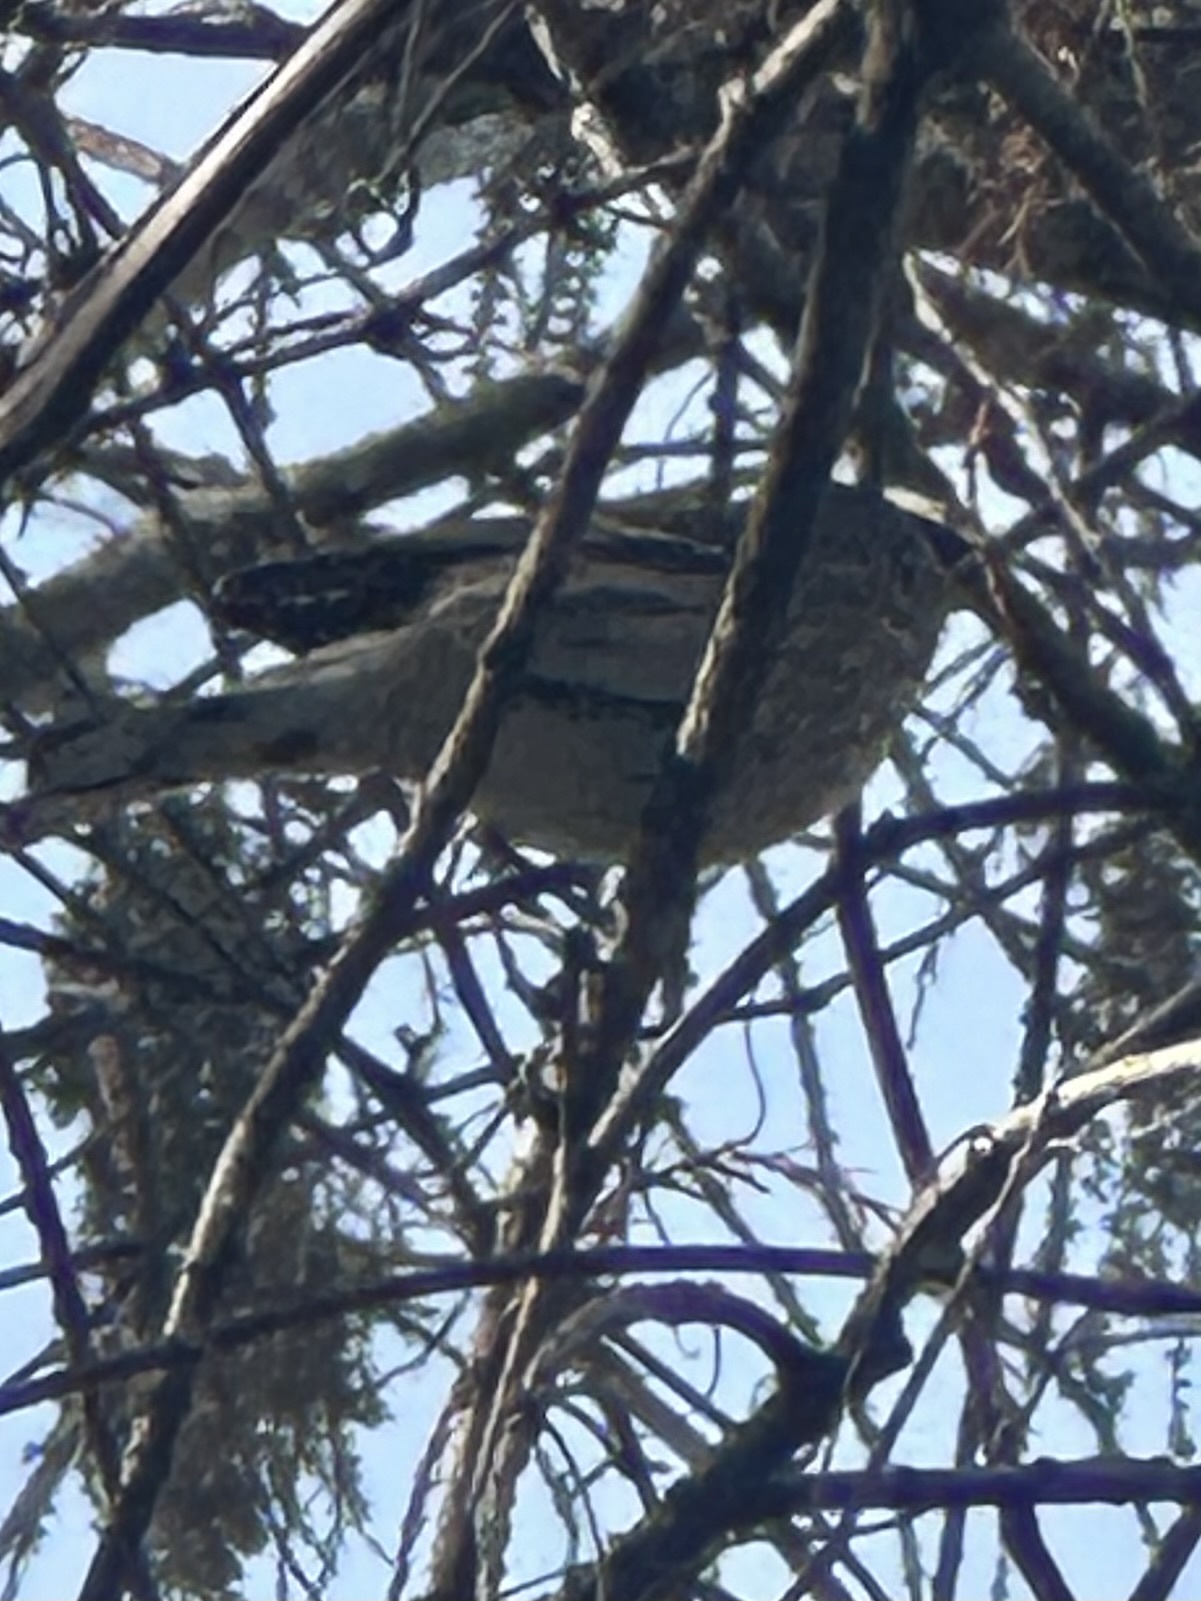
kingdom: Animalia
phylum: Chordata
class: Aves
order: Passeriformes
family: Parulidae
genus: Setophaga
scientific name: Setophaga coronata
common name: Myrtle warbler
